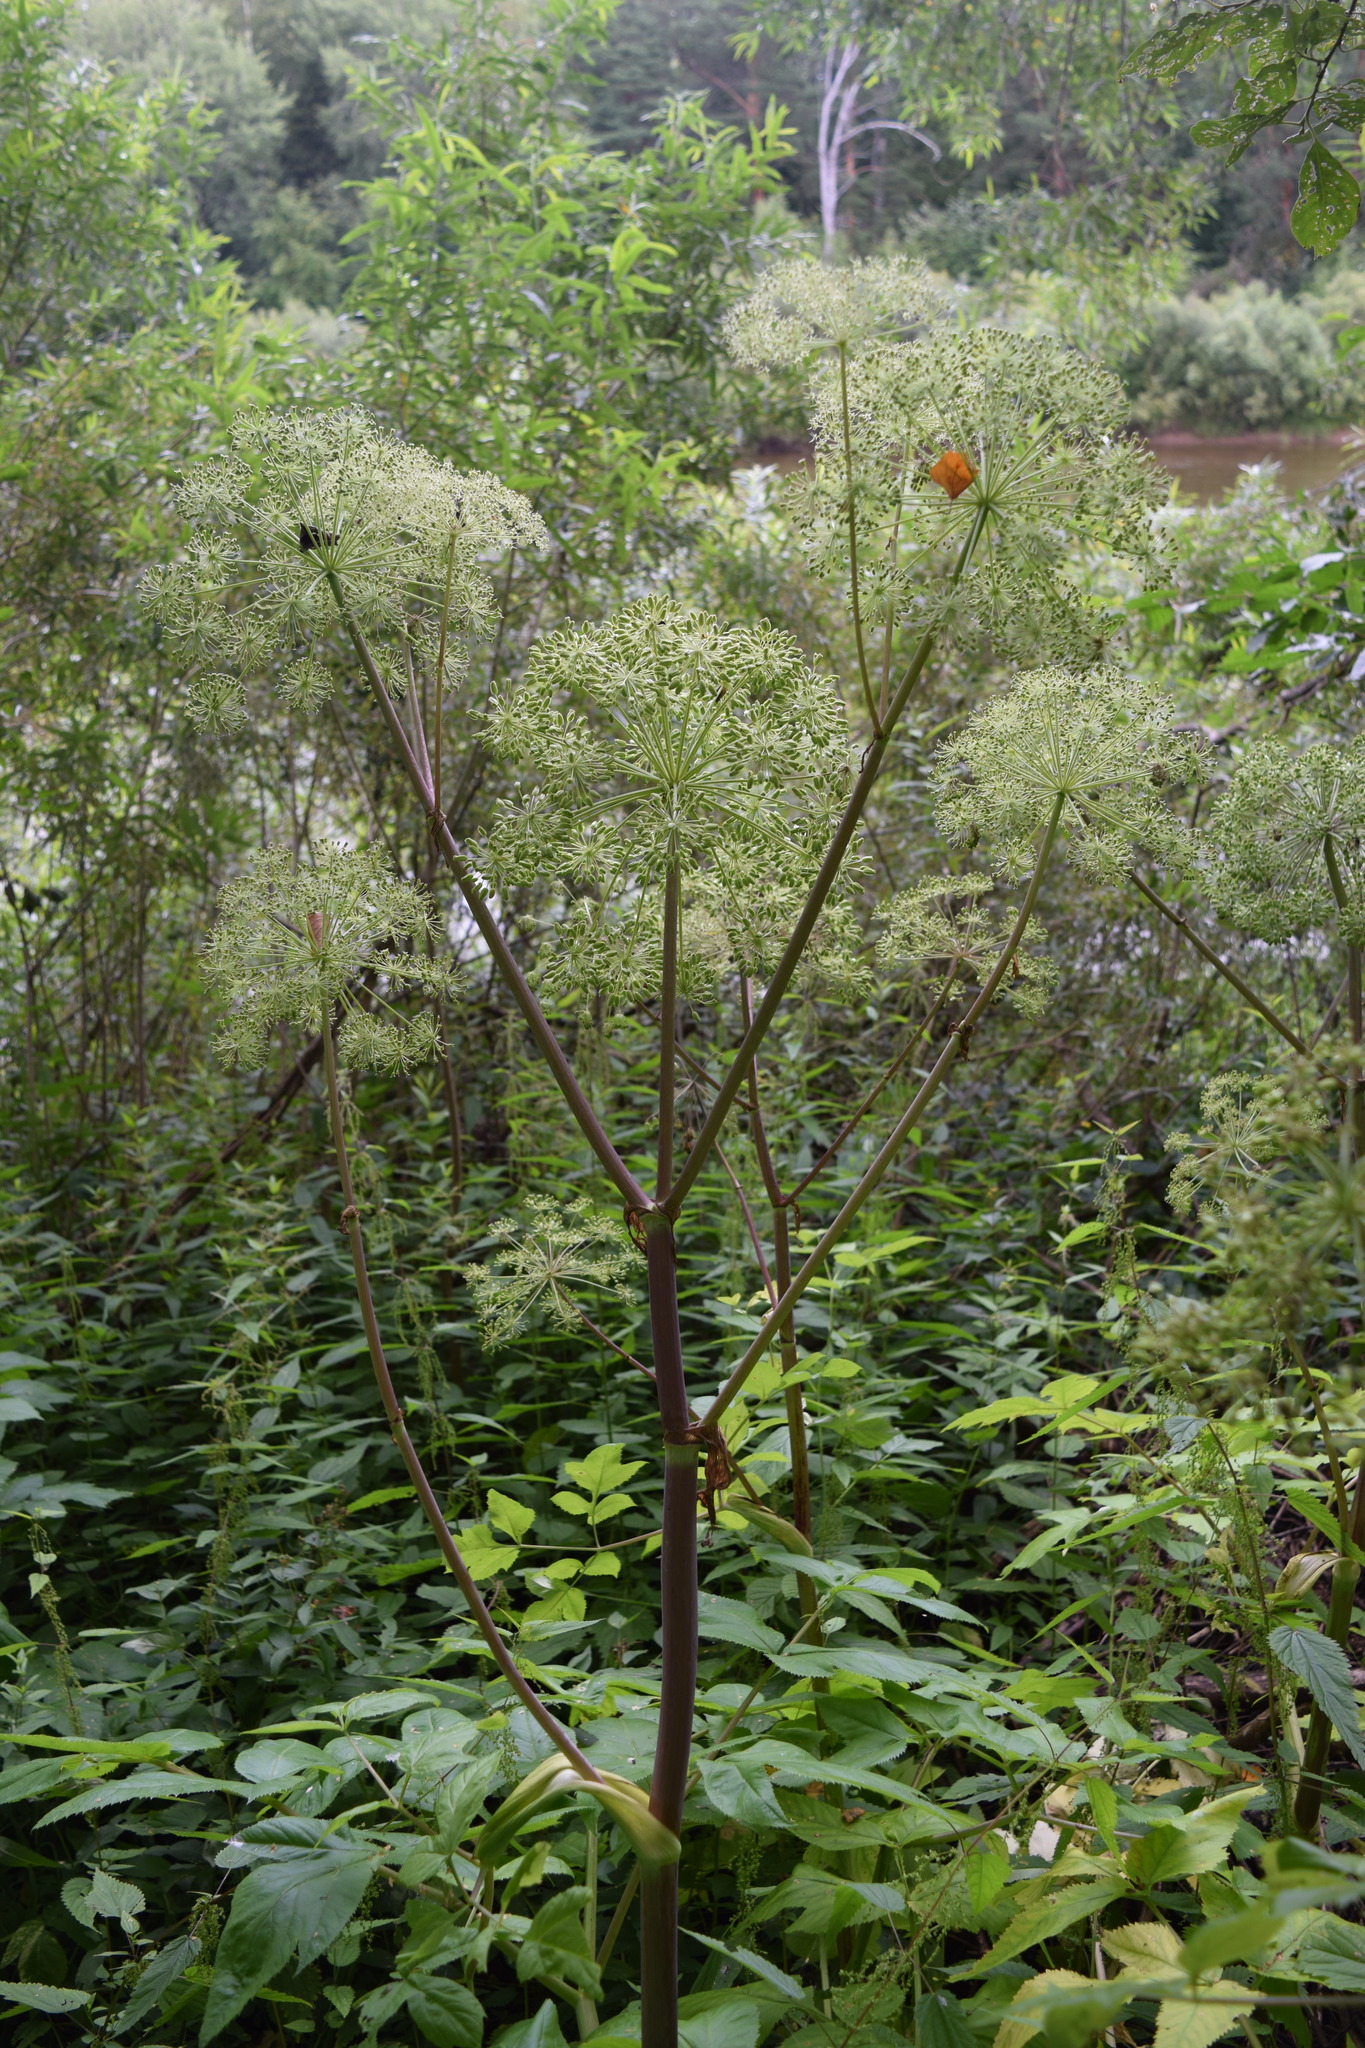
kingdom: Plantae
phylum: Tracheophyta
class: Magnoliopsida
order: Apiales
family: Apiaceae
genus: Angelica
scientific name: Angelica archangelica
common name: Garden angelica
